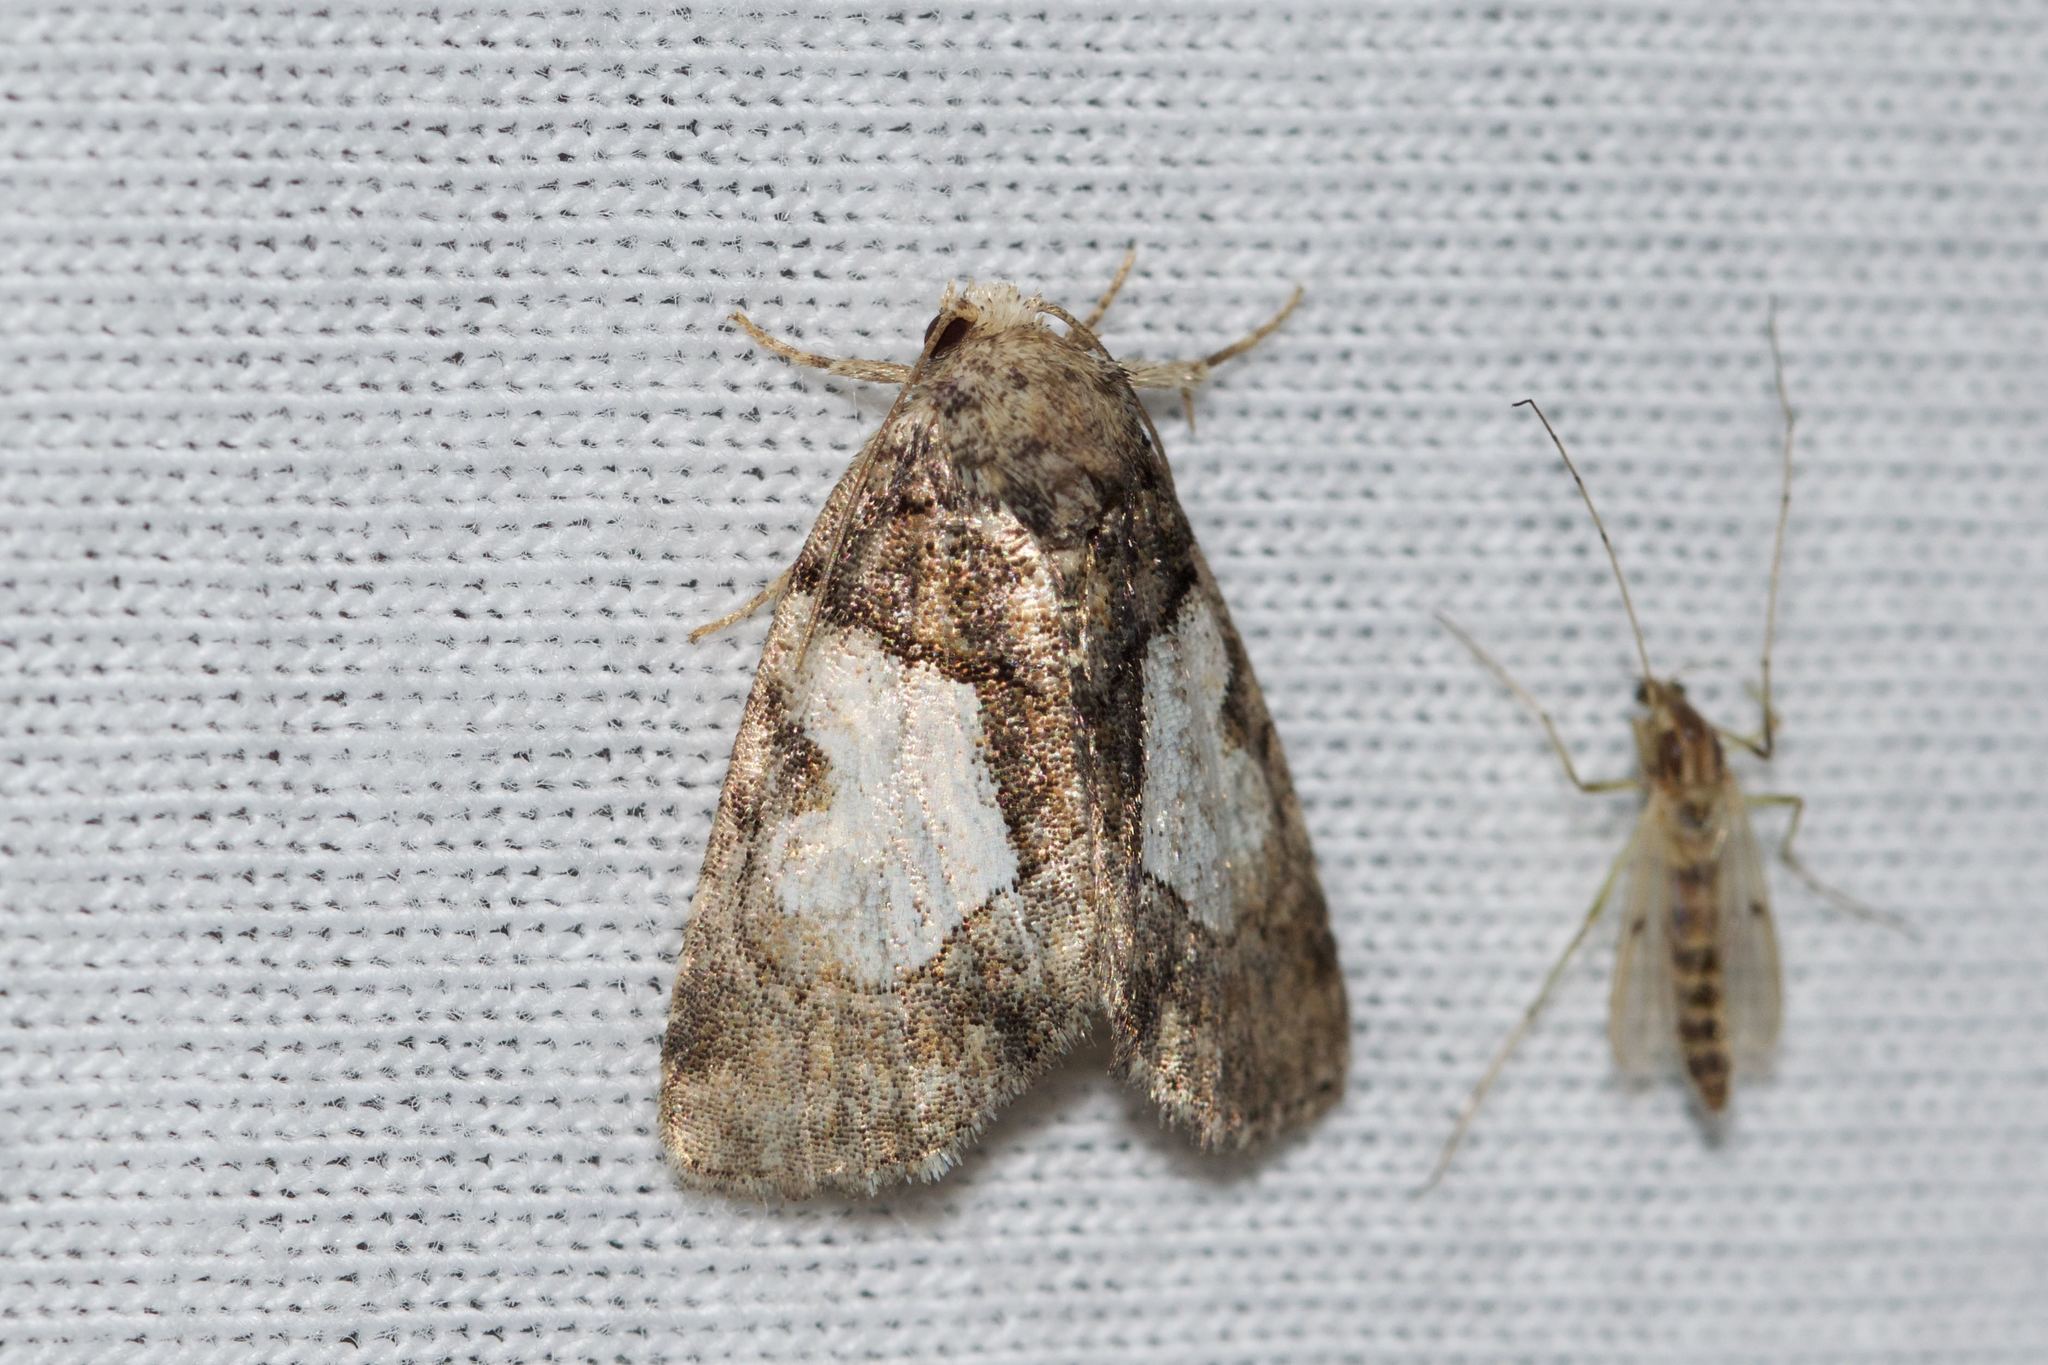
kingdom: Animalia
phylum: Arthropoda
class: Insecta
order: Lepidoptera
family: Noctuidae
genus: Chytonix
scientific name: Chytonix palliatricula
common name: Cloaked marvel
